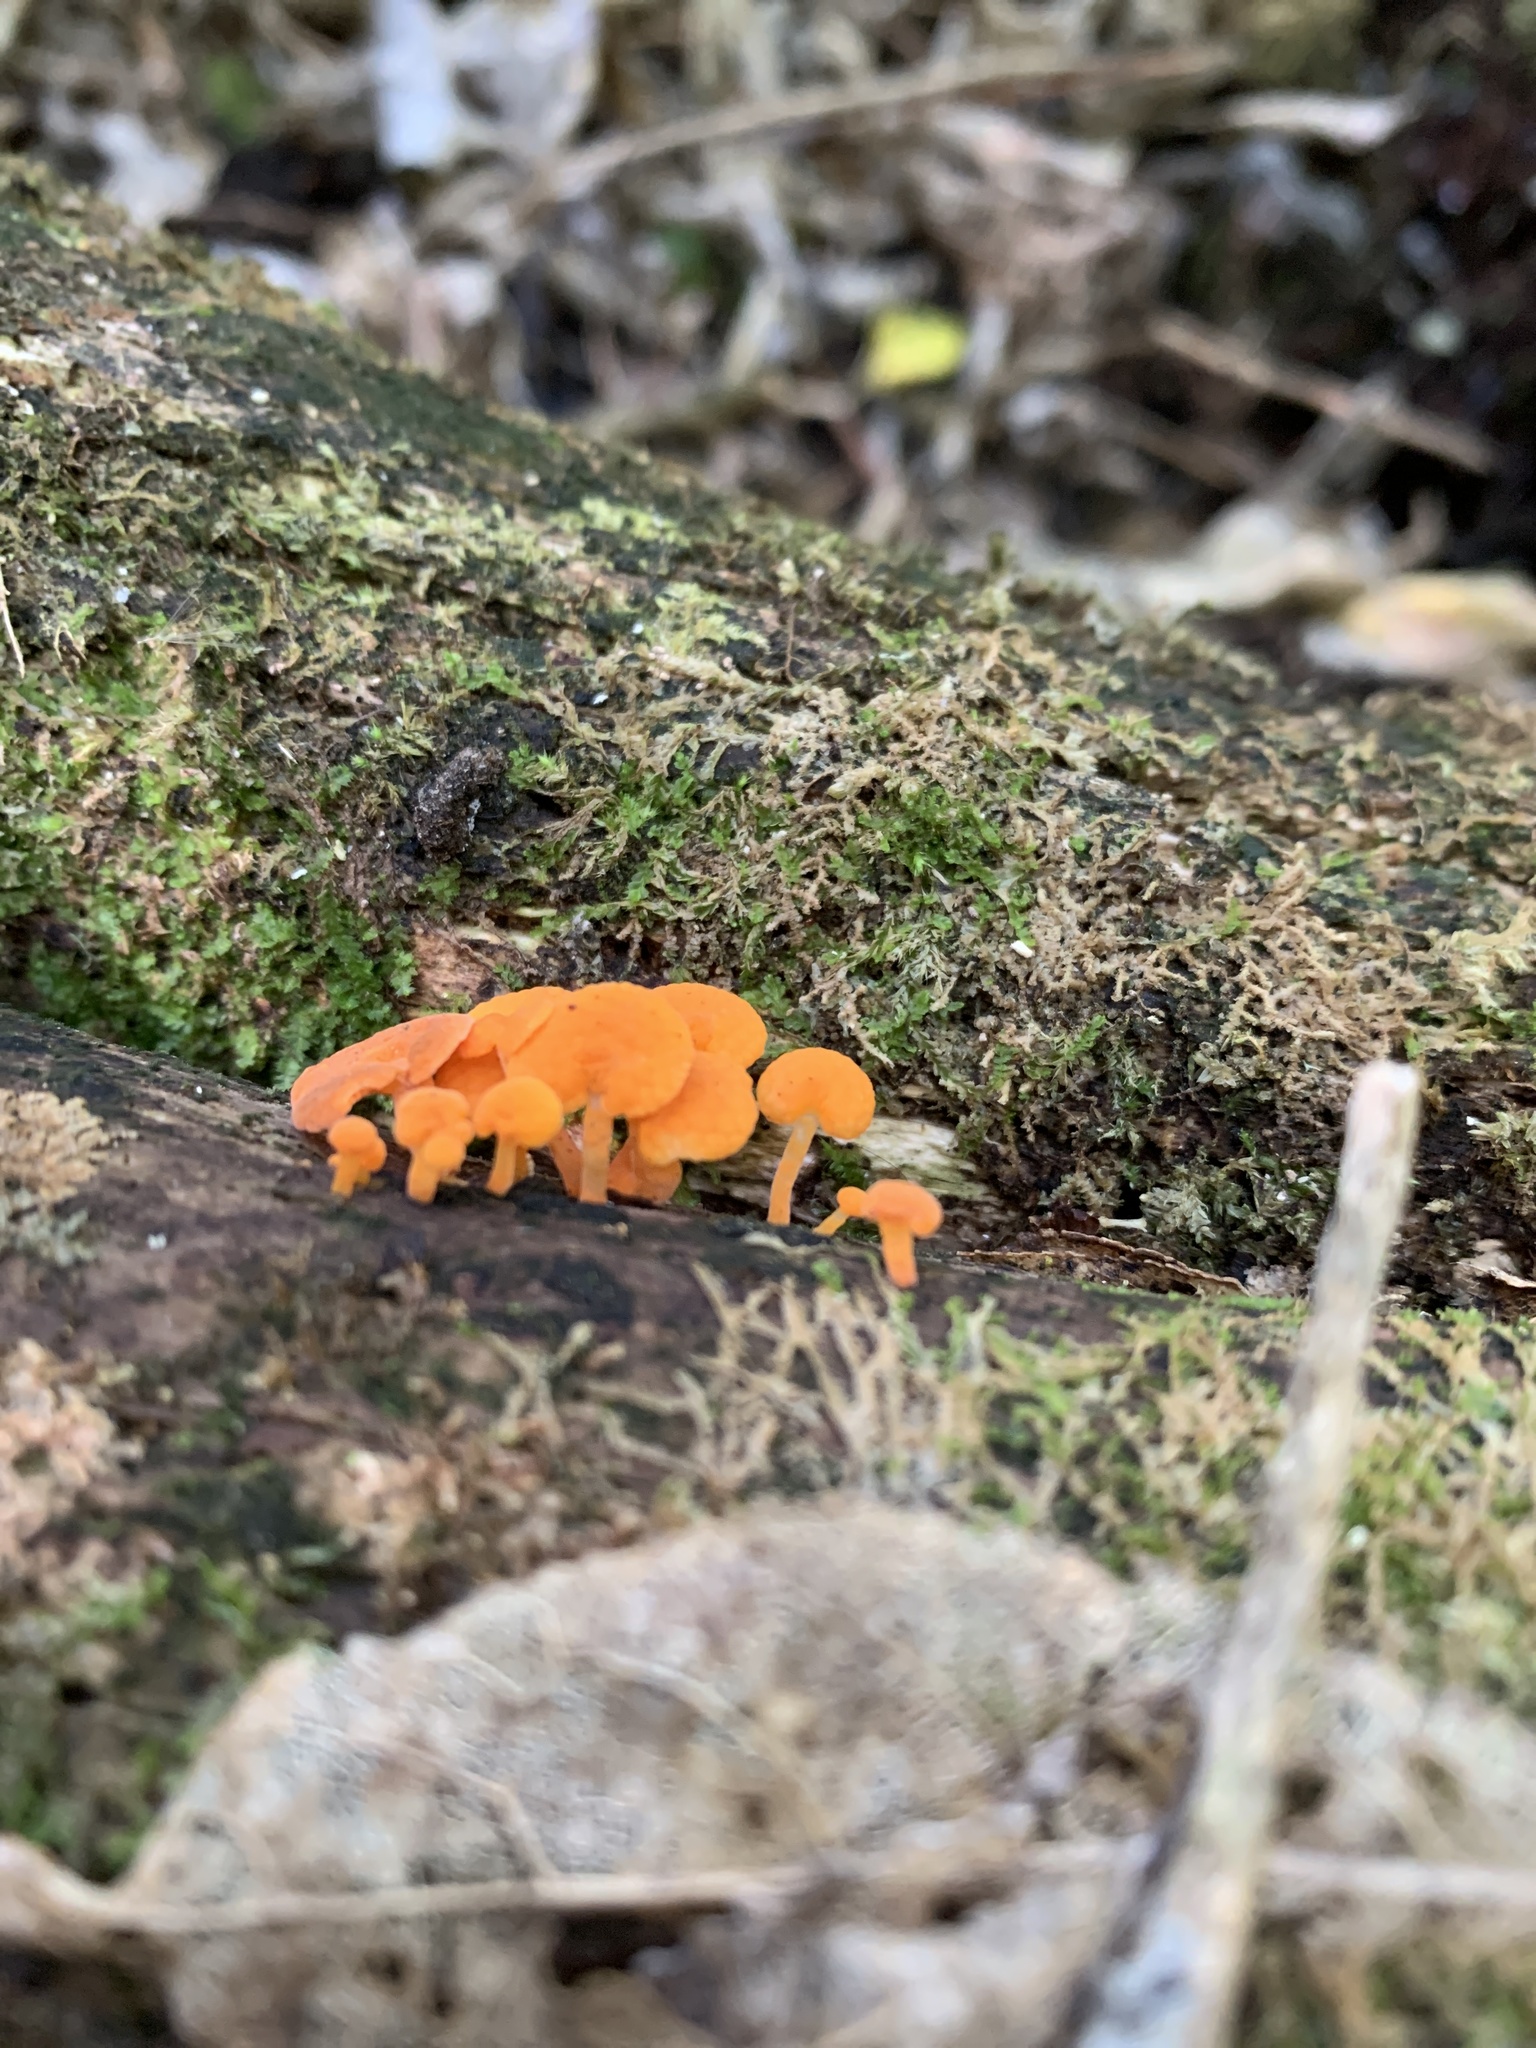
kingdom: Fungi
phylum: Basidiomycota
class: Agaricomycetes
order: Agaricales
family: Mycenaceae
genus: Favolaschia
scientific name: Favolaschia claudopus
